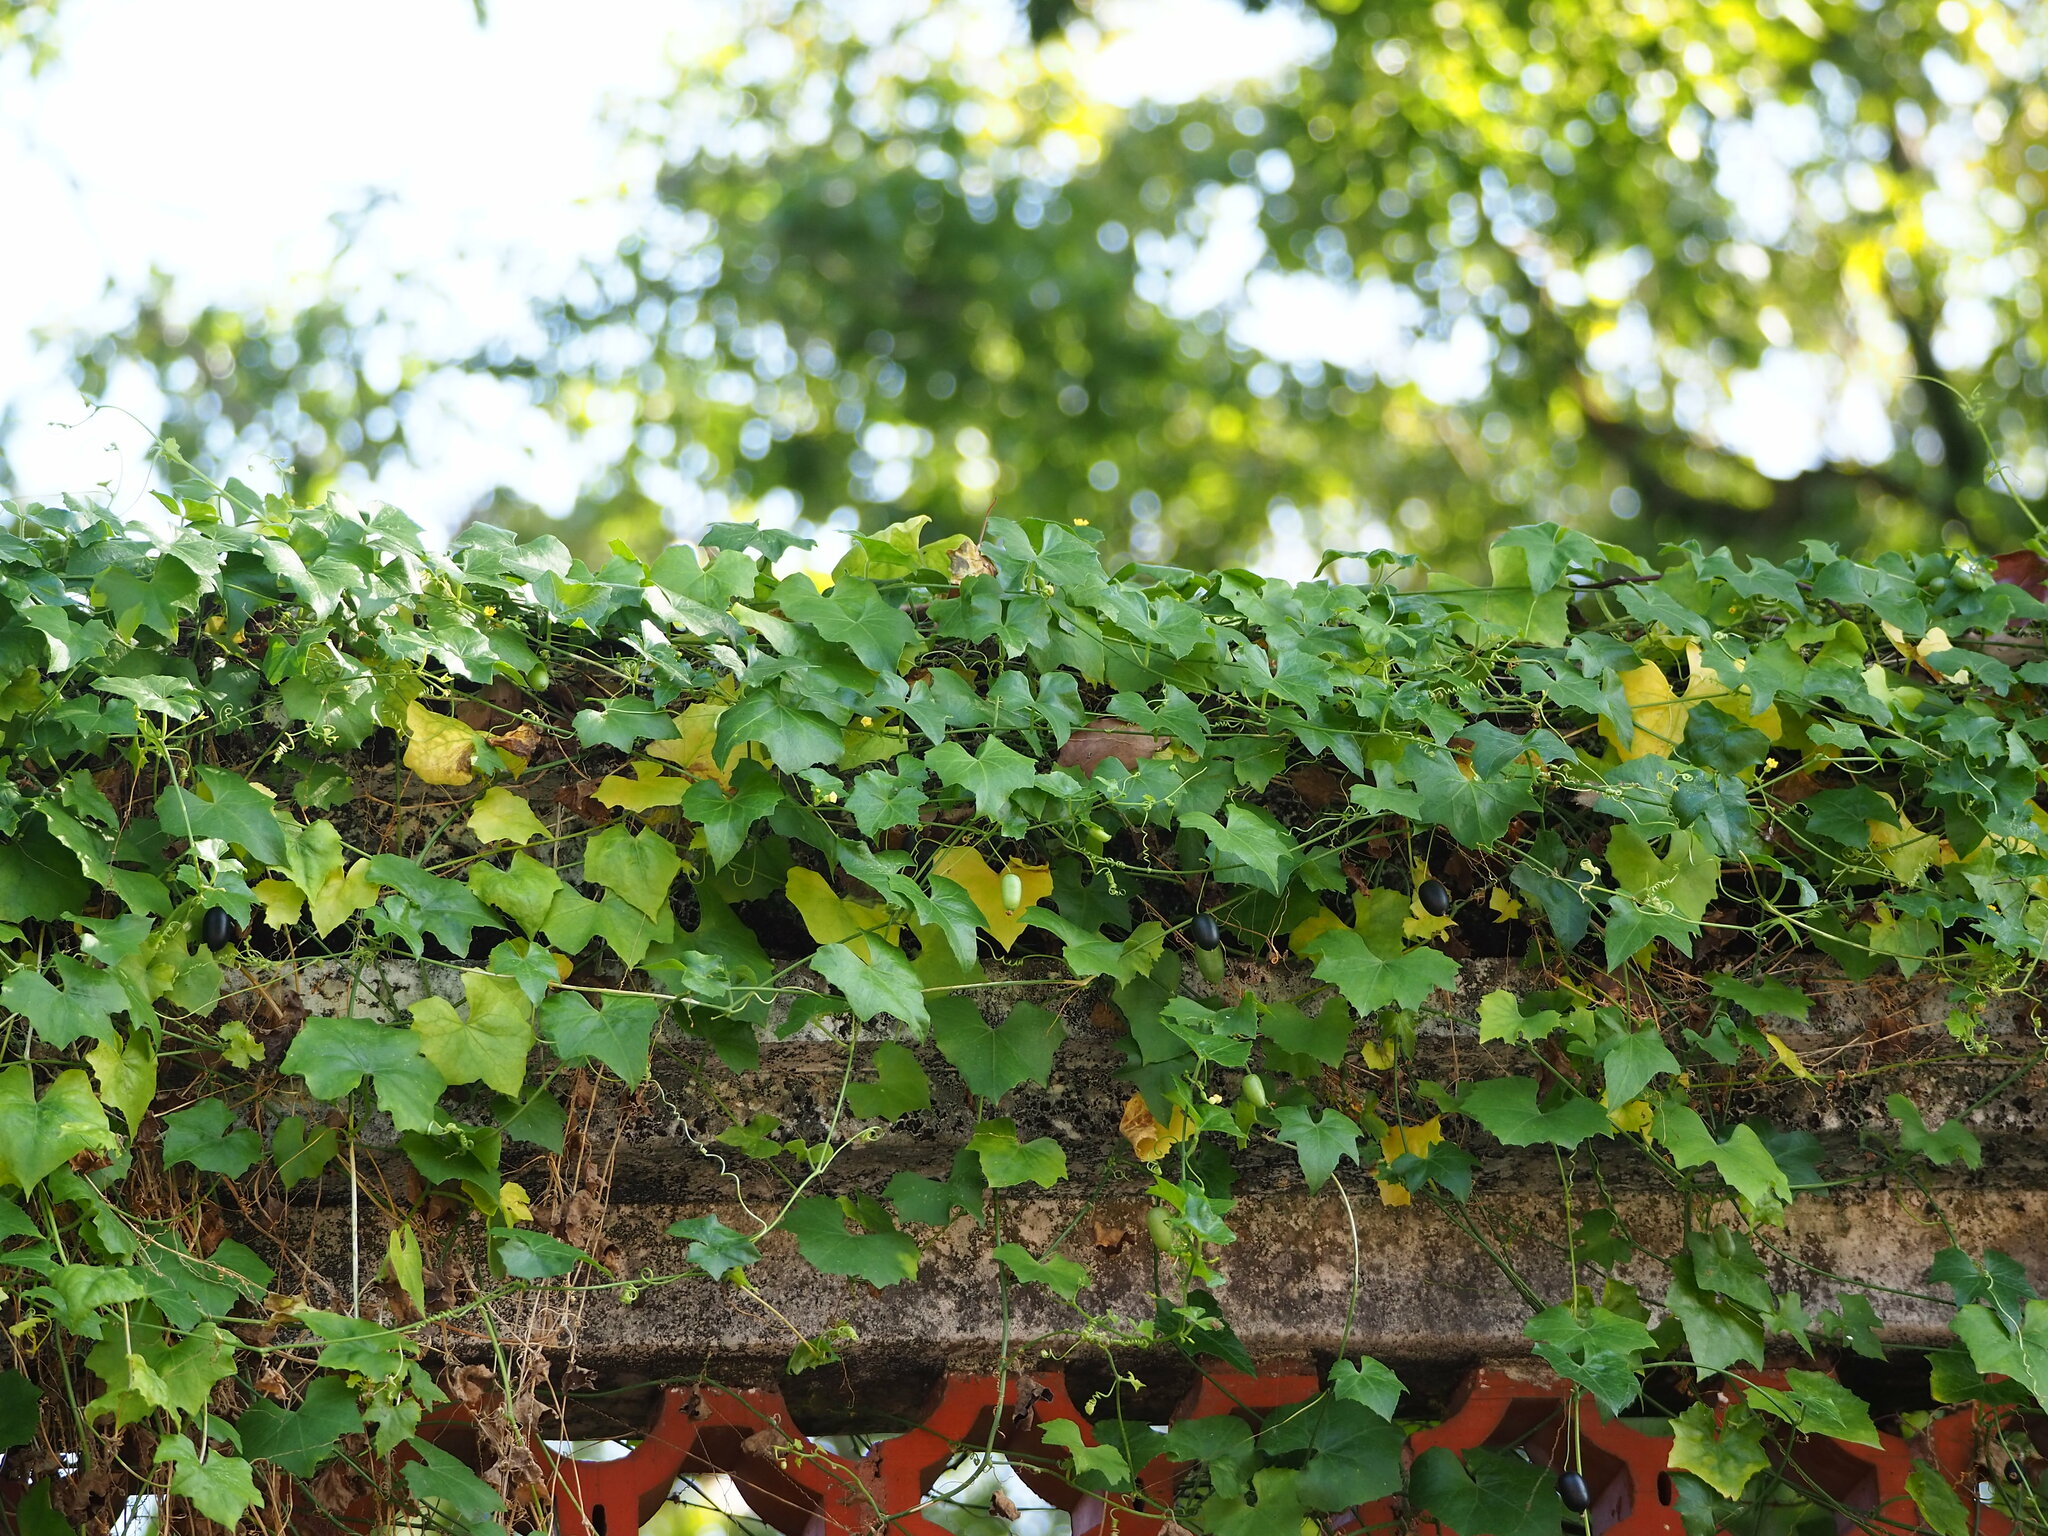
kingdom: Plantae
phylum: Tracheophyta
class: Magnoliopsida
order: Cucurbitales
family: Cucurbitaceae
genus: Melothria
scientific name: Melothria pendula
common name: Creeping-cucumber
